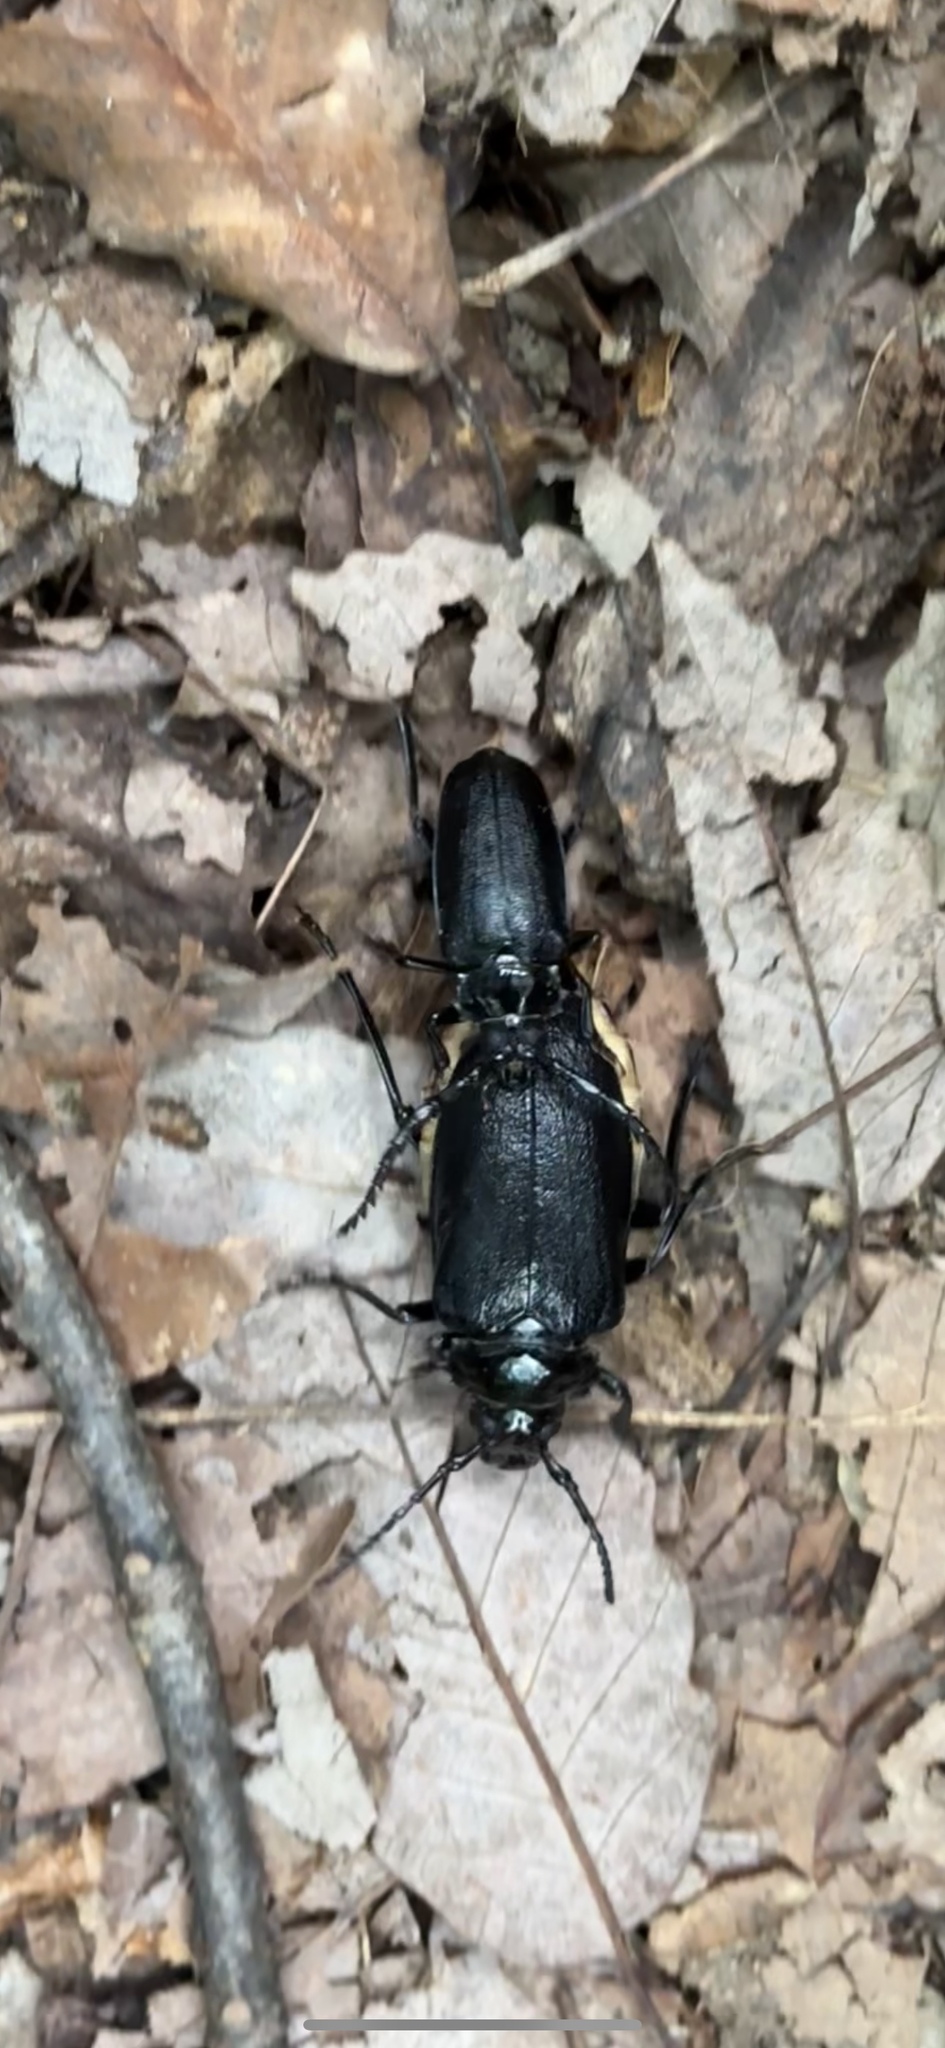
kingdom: Animalia
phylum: Arthropoda
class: Insecta
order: Coleoptera
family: Cerambycidae
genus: Prionus
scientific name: Prionus laticollis
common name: Broad necked prionus
